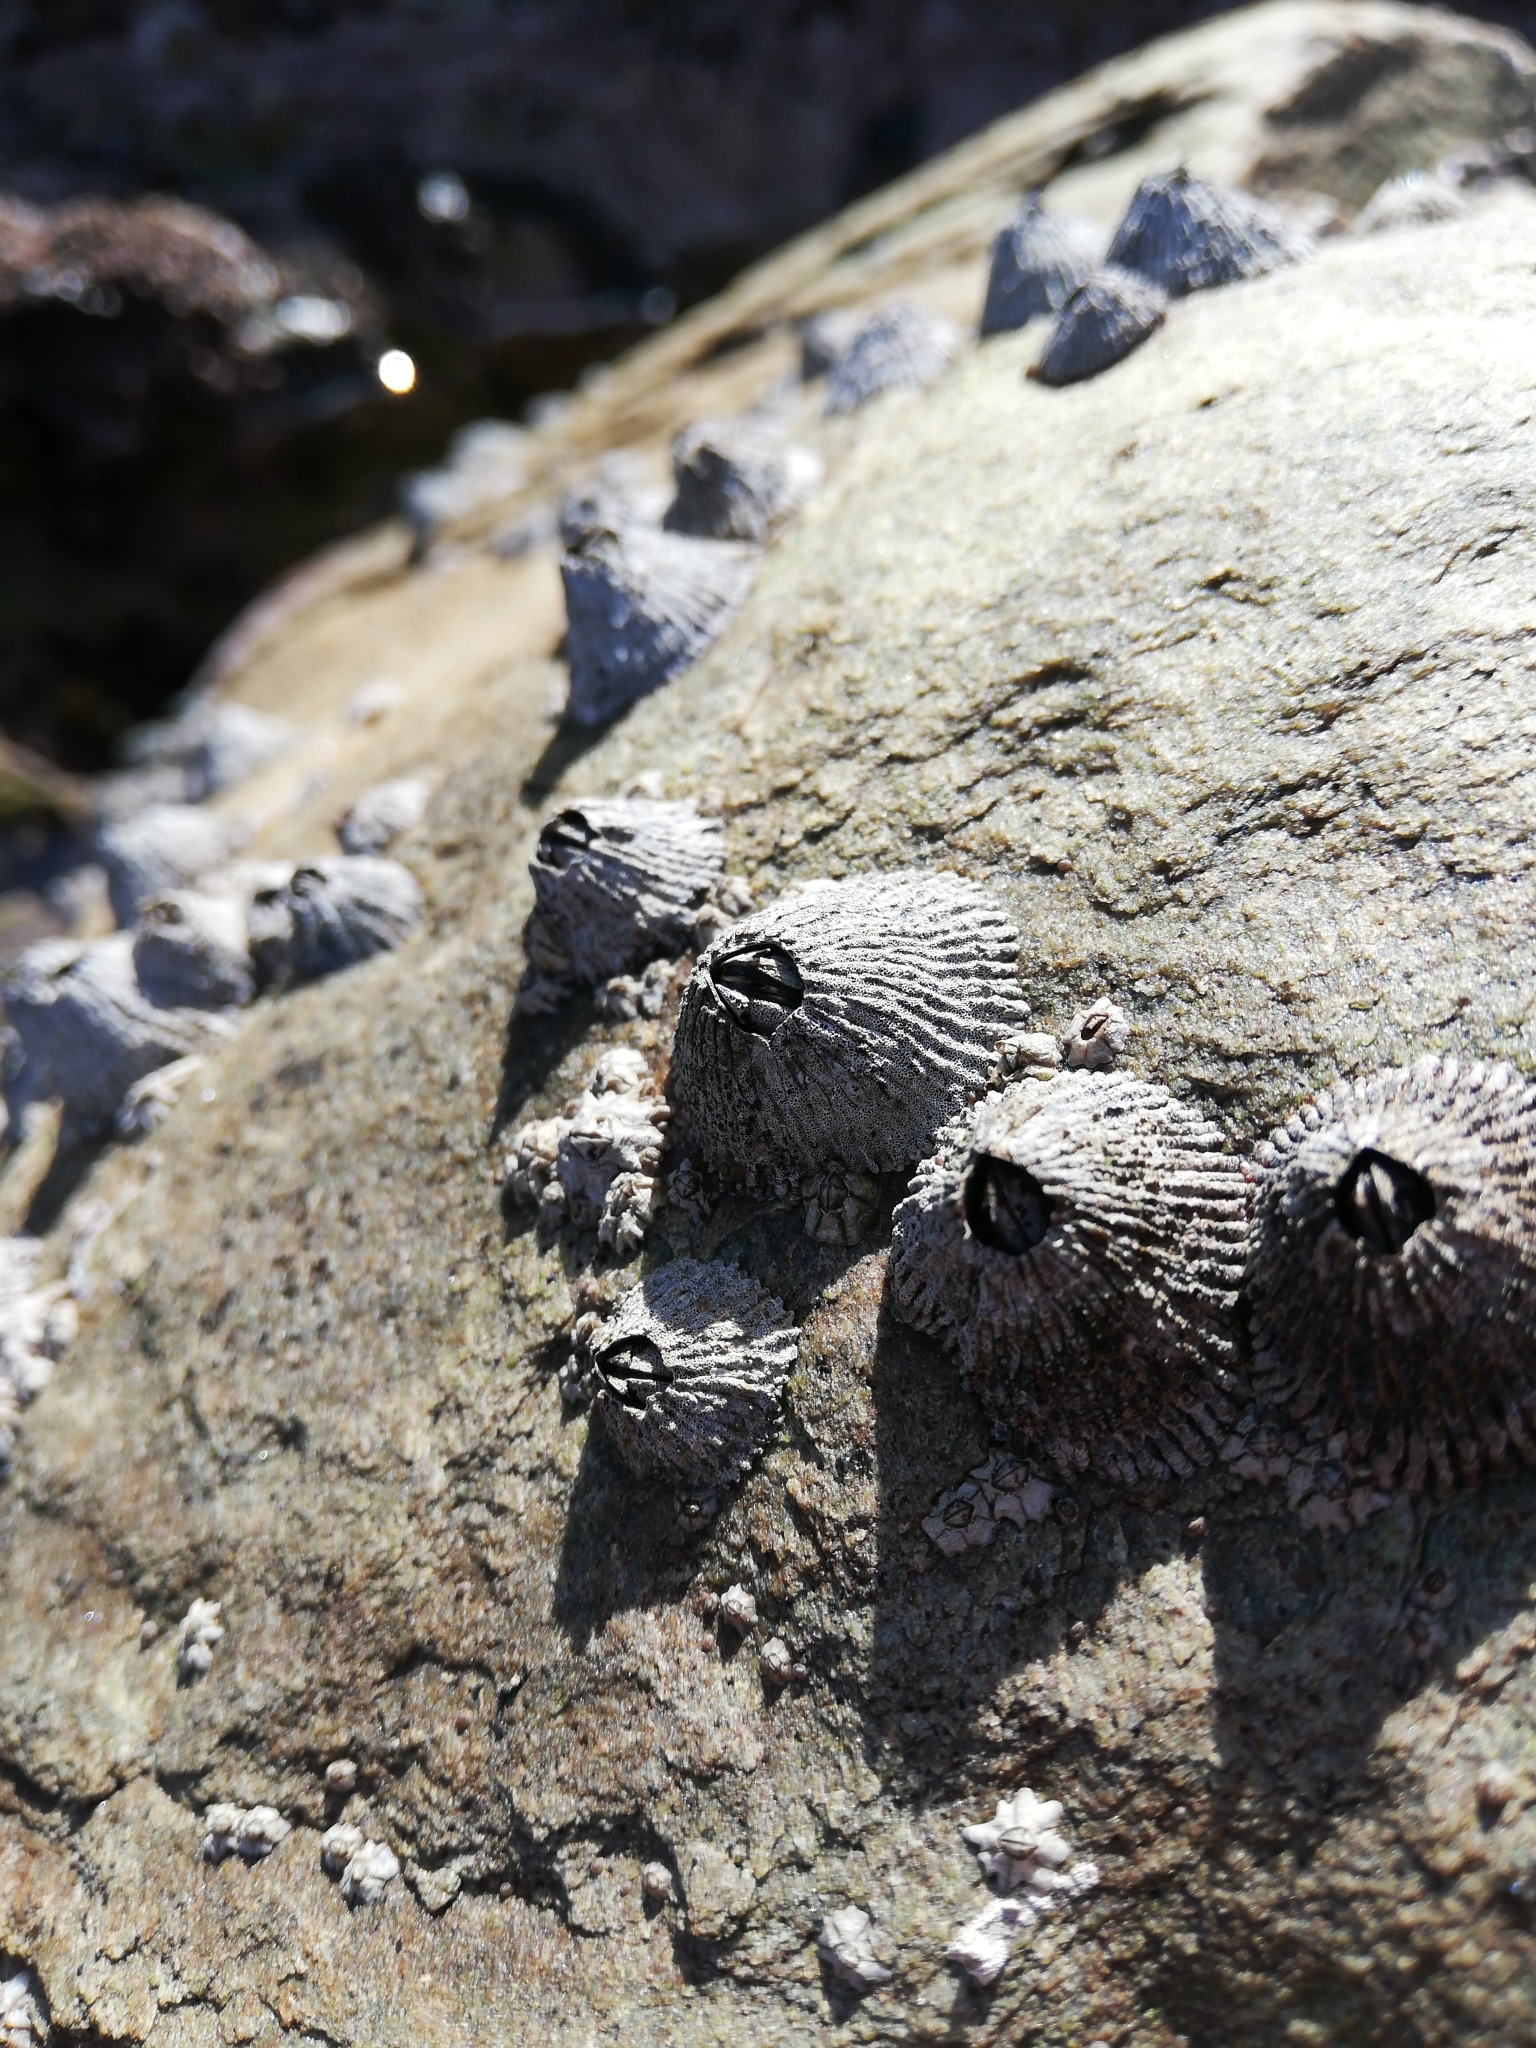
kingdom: Animalia
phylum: Arthropoda
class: Maxillopoda
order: Sessilia
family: Tetraclitidae
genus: Tetraclita
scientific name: Tetraclita serrata
